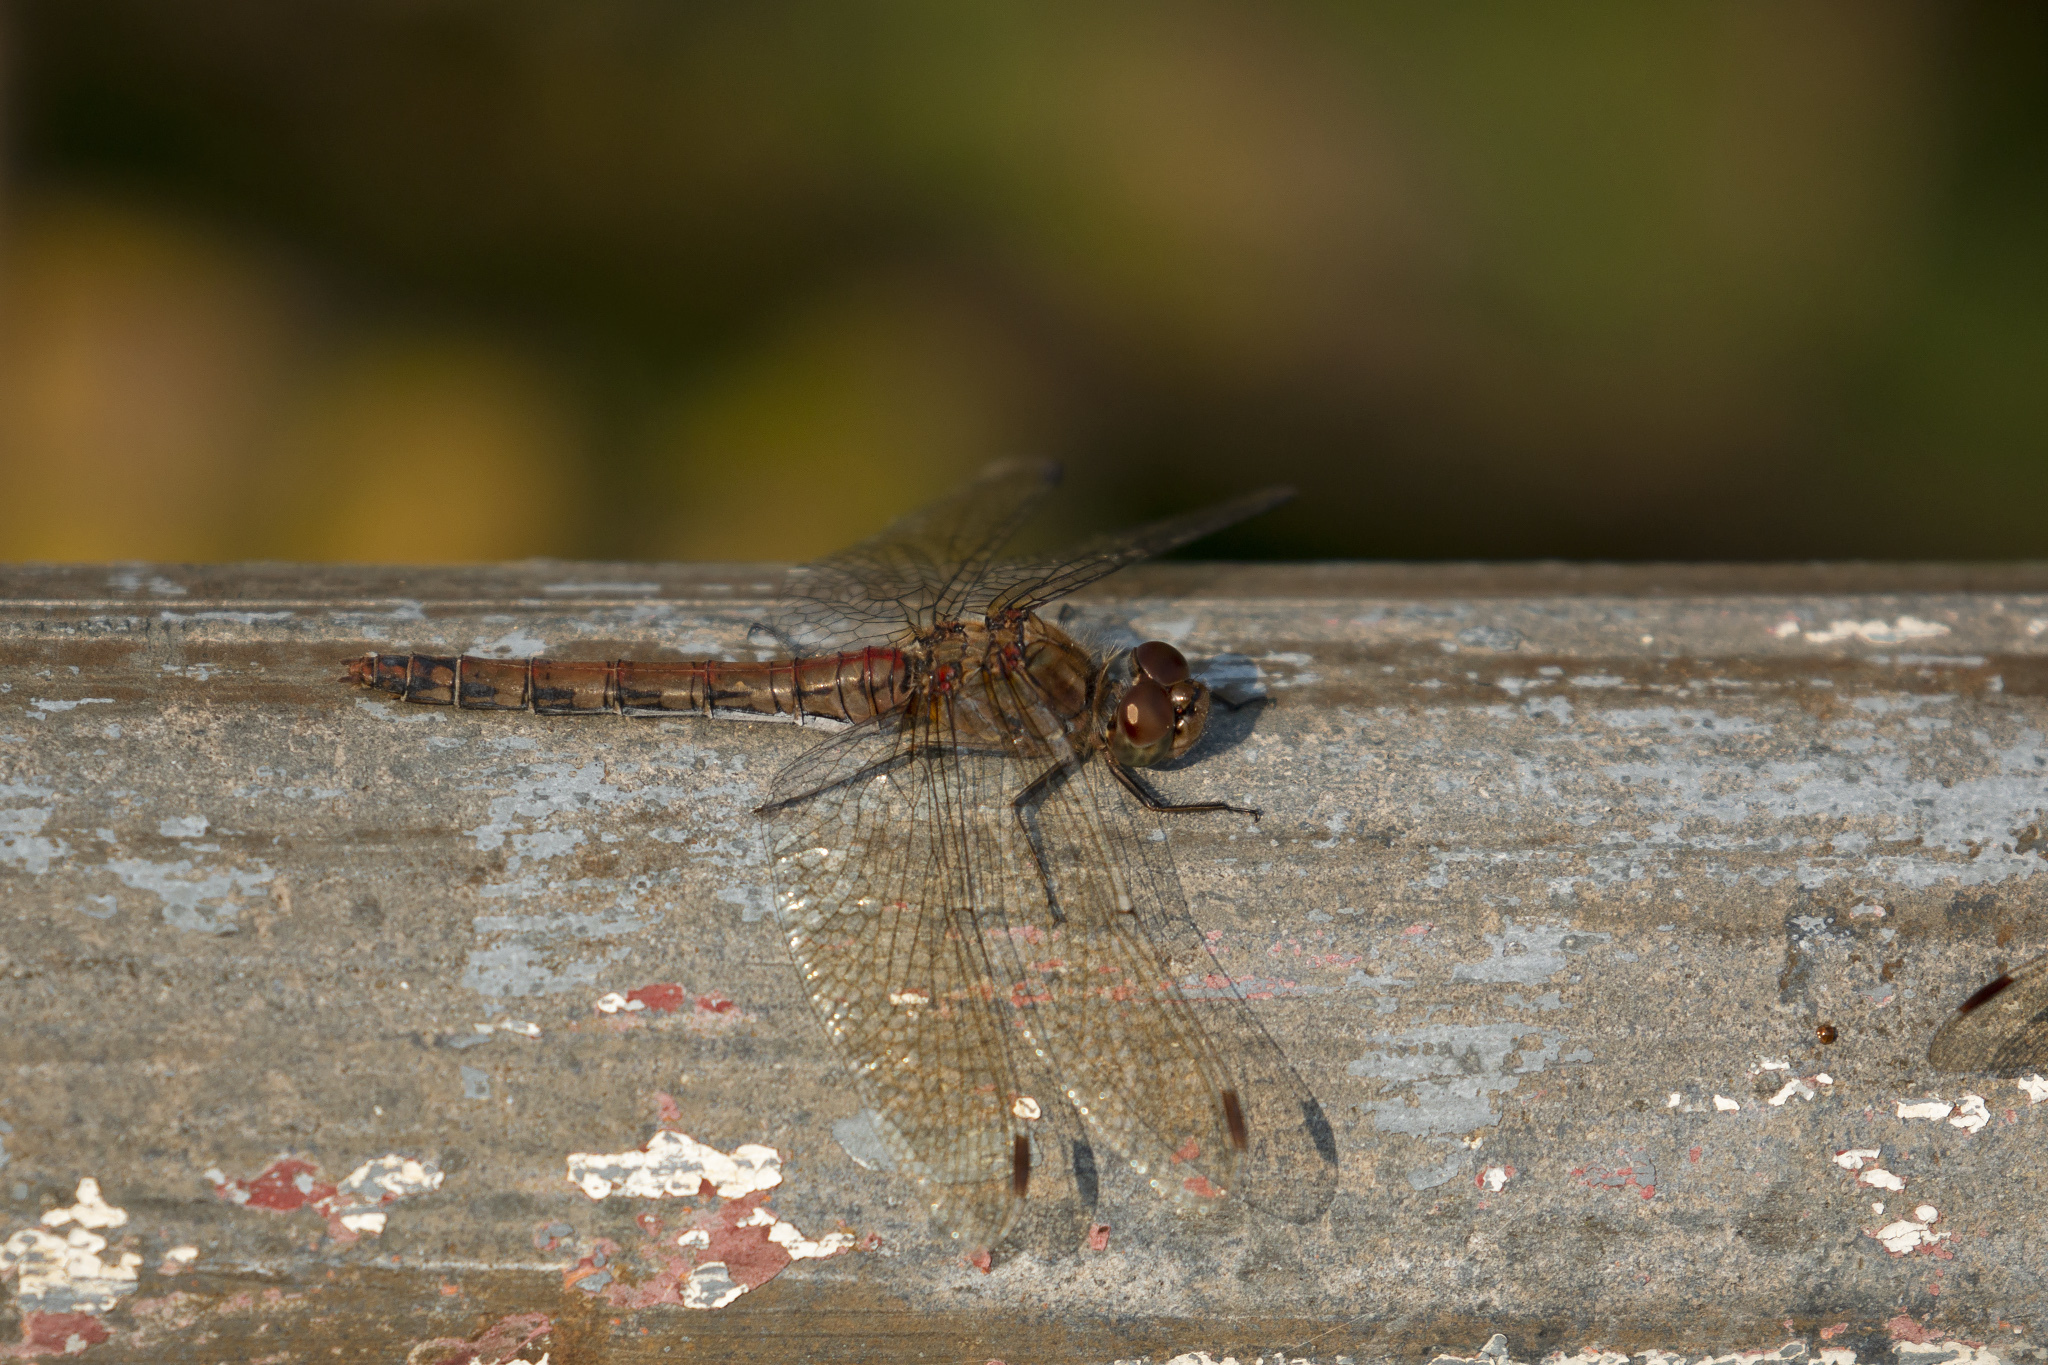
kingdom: Animalia
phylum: Arthropoda
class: Insecta
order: Odonata
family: Libellulidae
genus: Sympetrum
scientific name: Sympetrum striolatum
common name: Common darter
